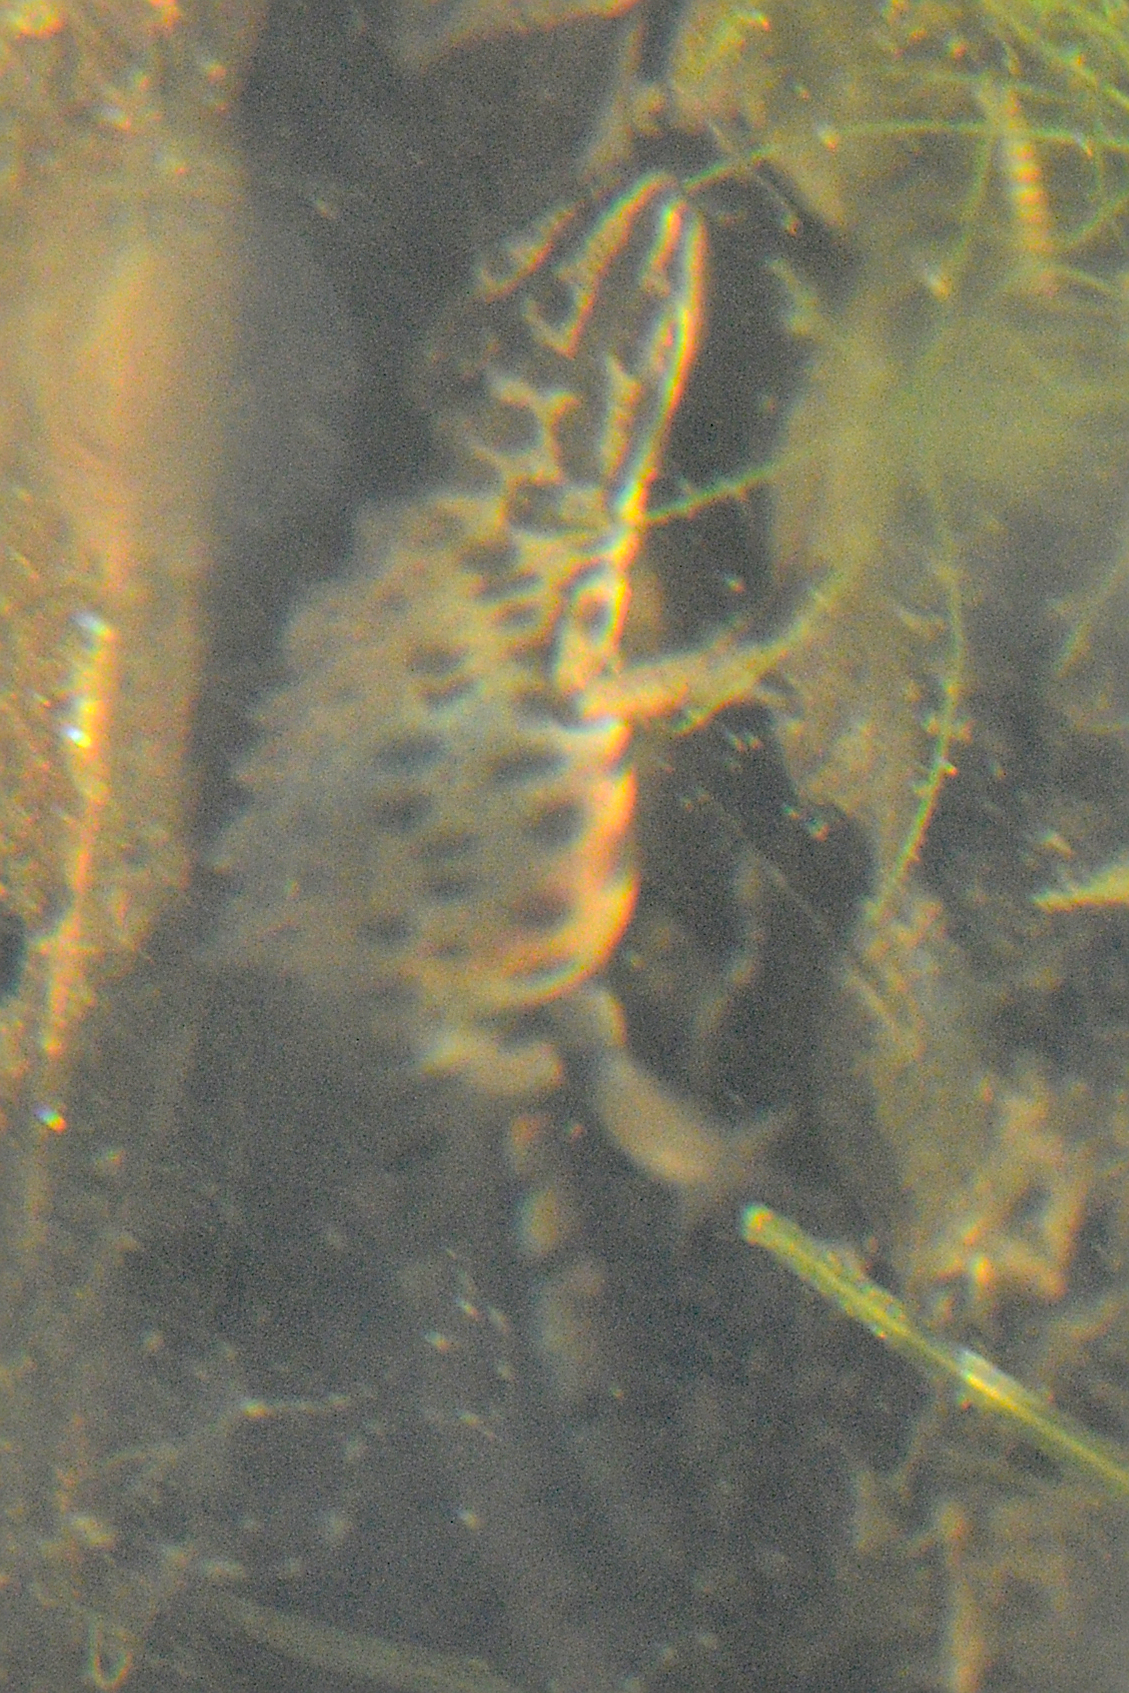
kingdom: Animalia
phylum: Chordata
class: Amphibia
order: Caudata
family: Salamandridae
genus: Lissotriton
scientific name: Lissotriton vulgaris
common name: Smooth newt
